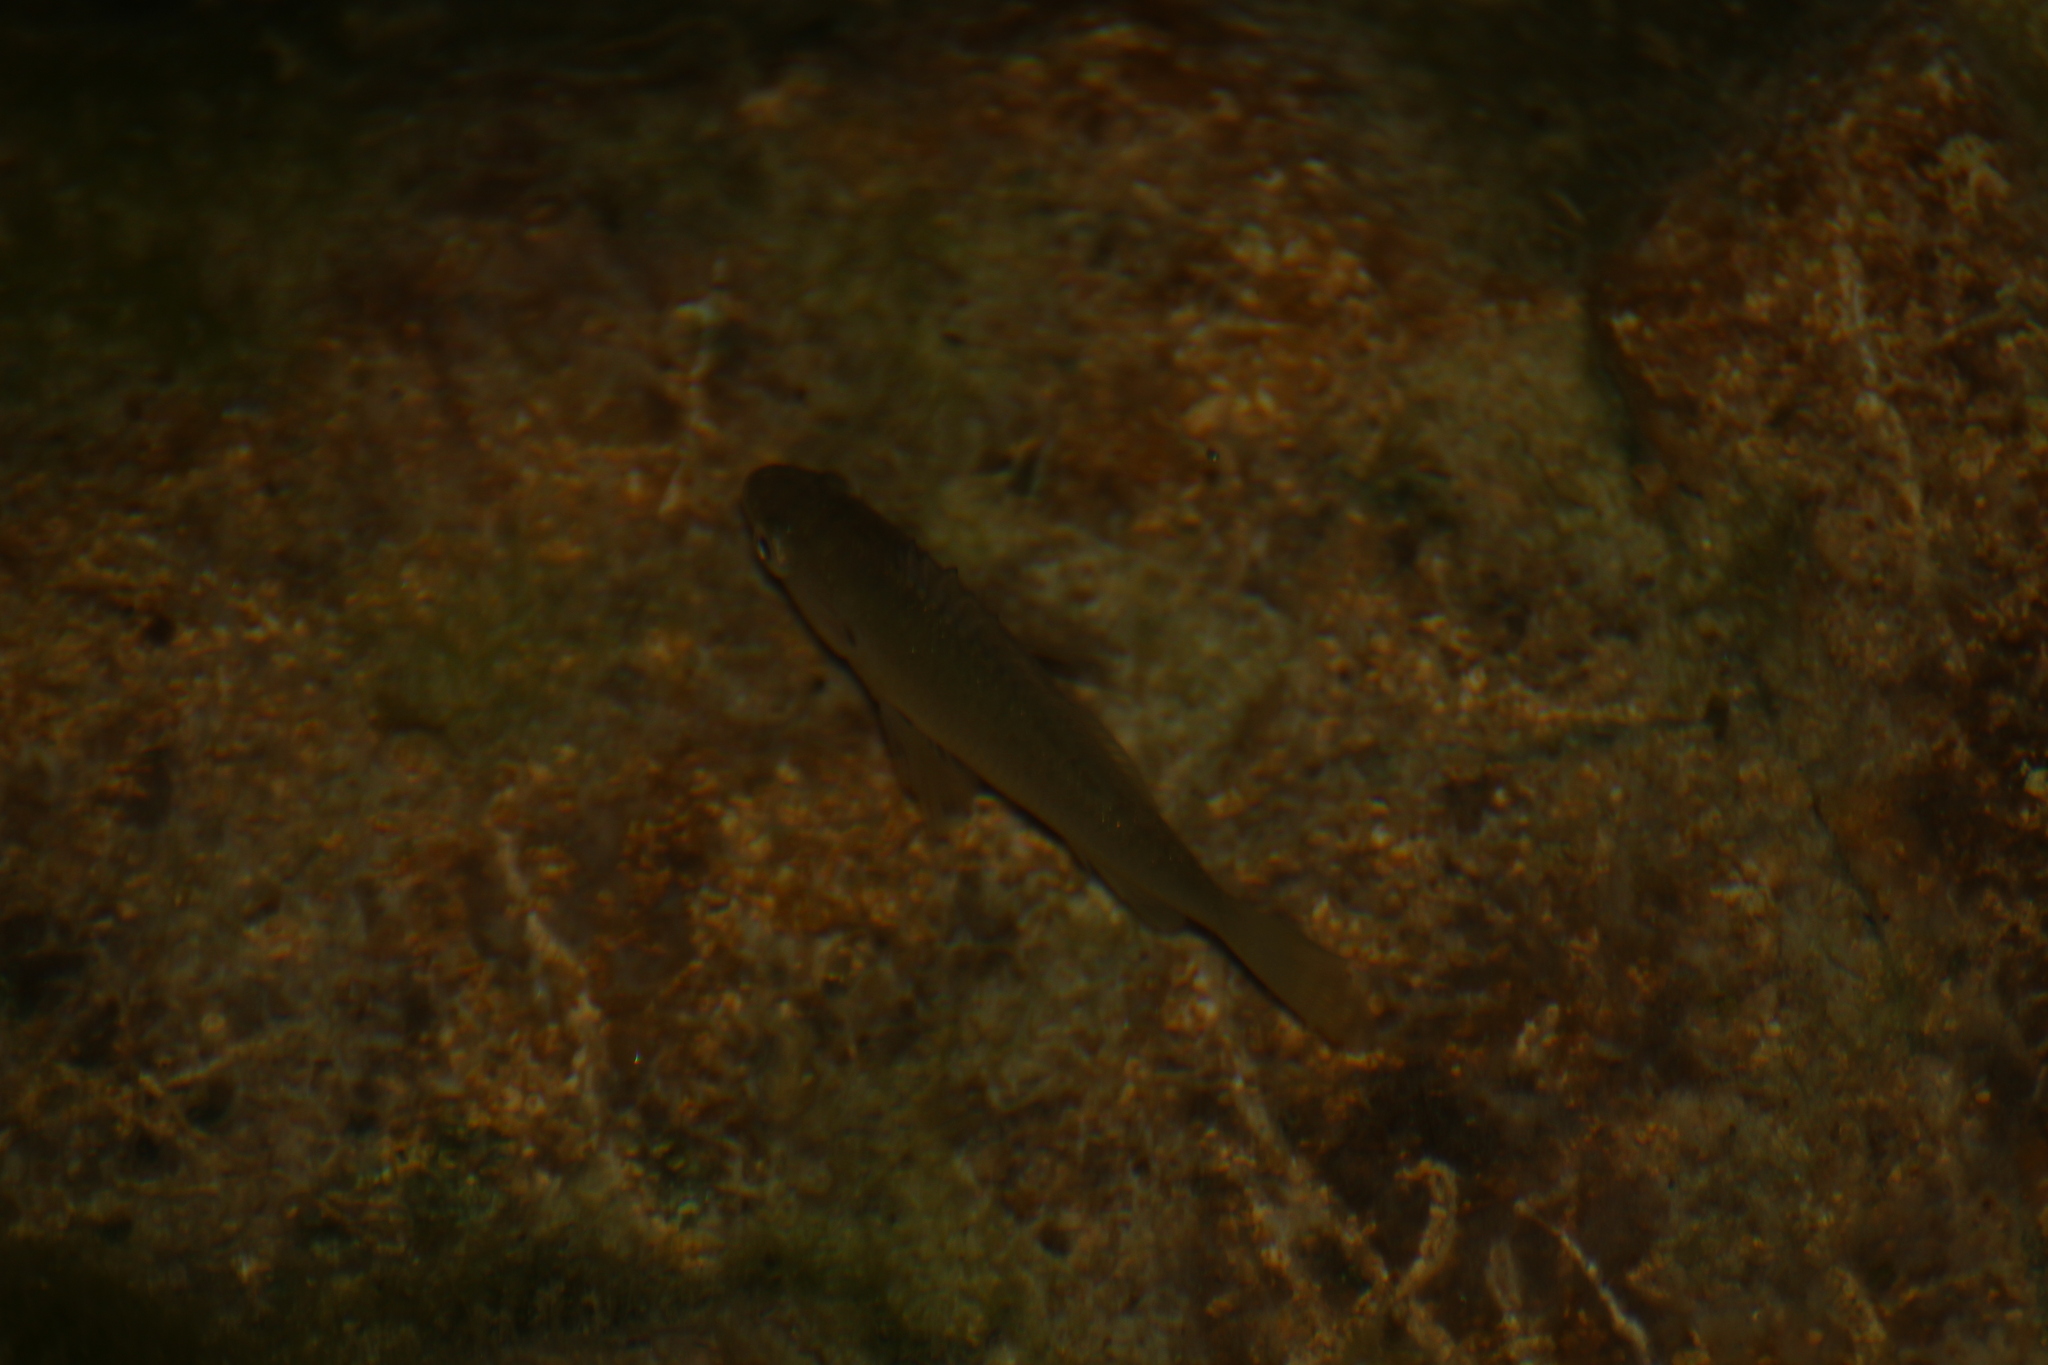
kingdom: Animalia
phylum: Chordata
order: Perciformes
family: Centrarchidae
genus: Lepomis
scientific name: Lepomis gibbosus
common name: Pumpkinseed
